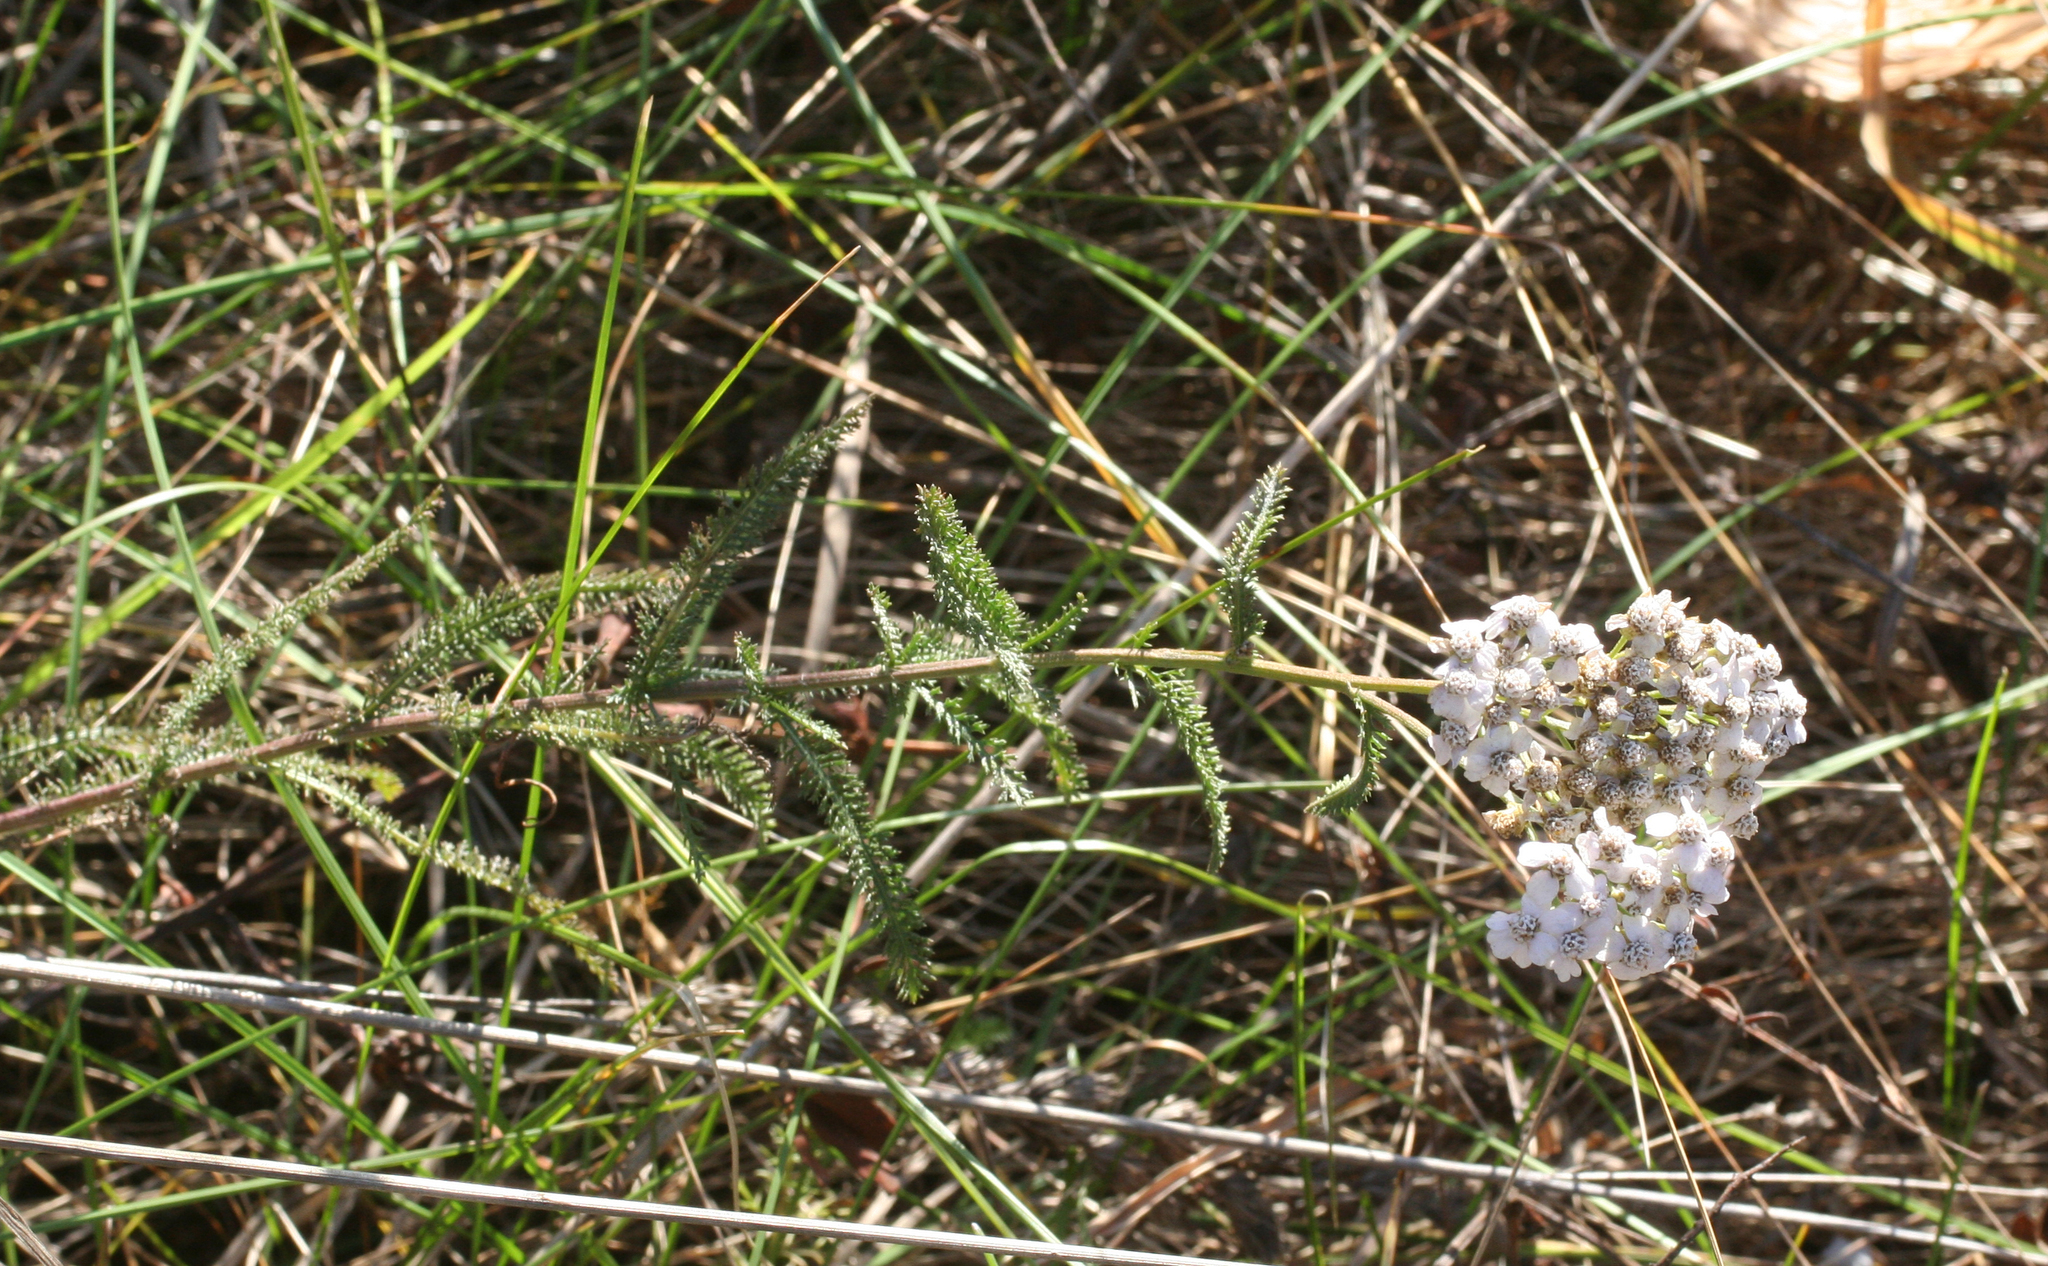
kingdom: Plantae
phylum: Tracheophyta
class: Magnoliopsida
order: Asterales
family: Asteraceae
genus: Achillea
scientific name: Achillea millefolium
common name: Yarrow
